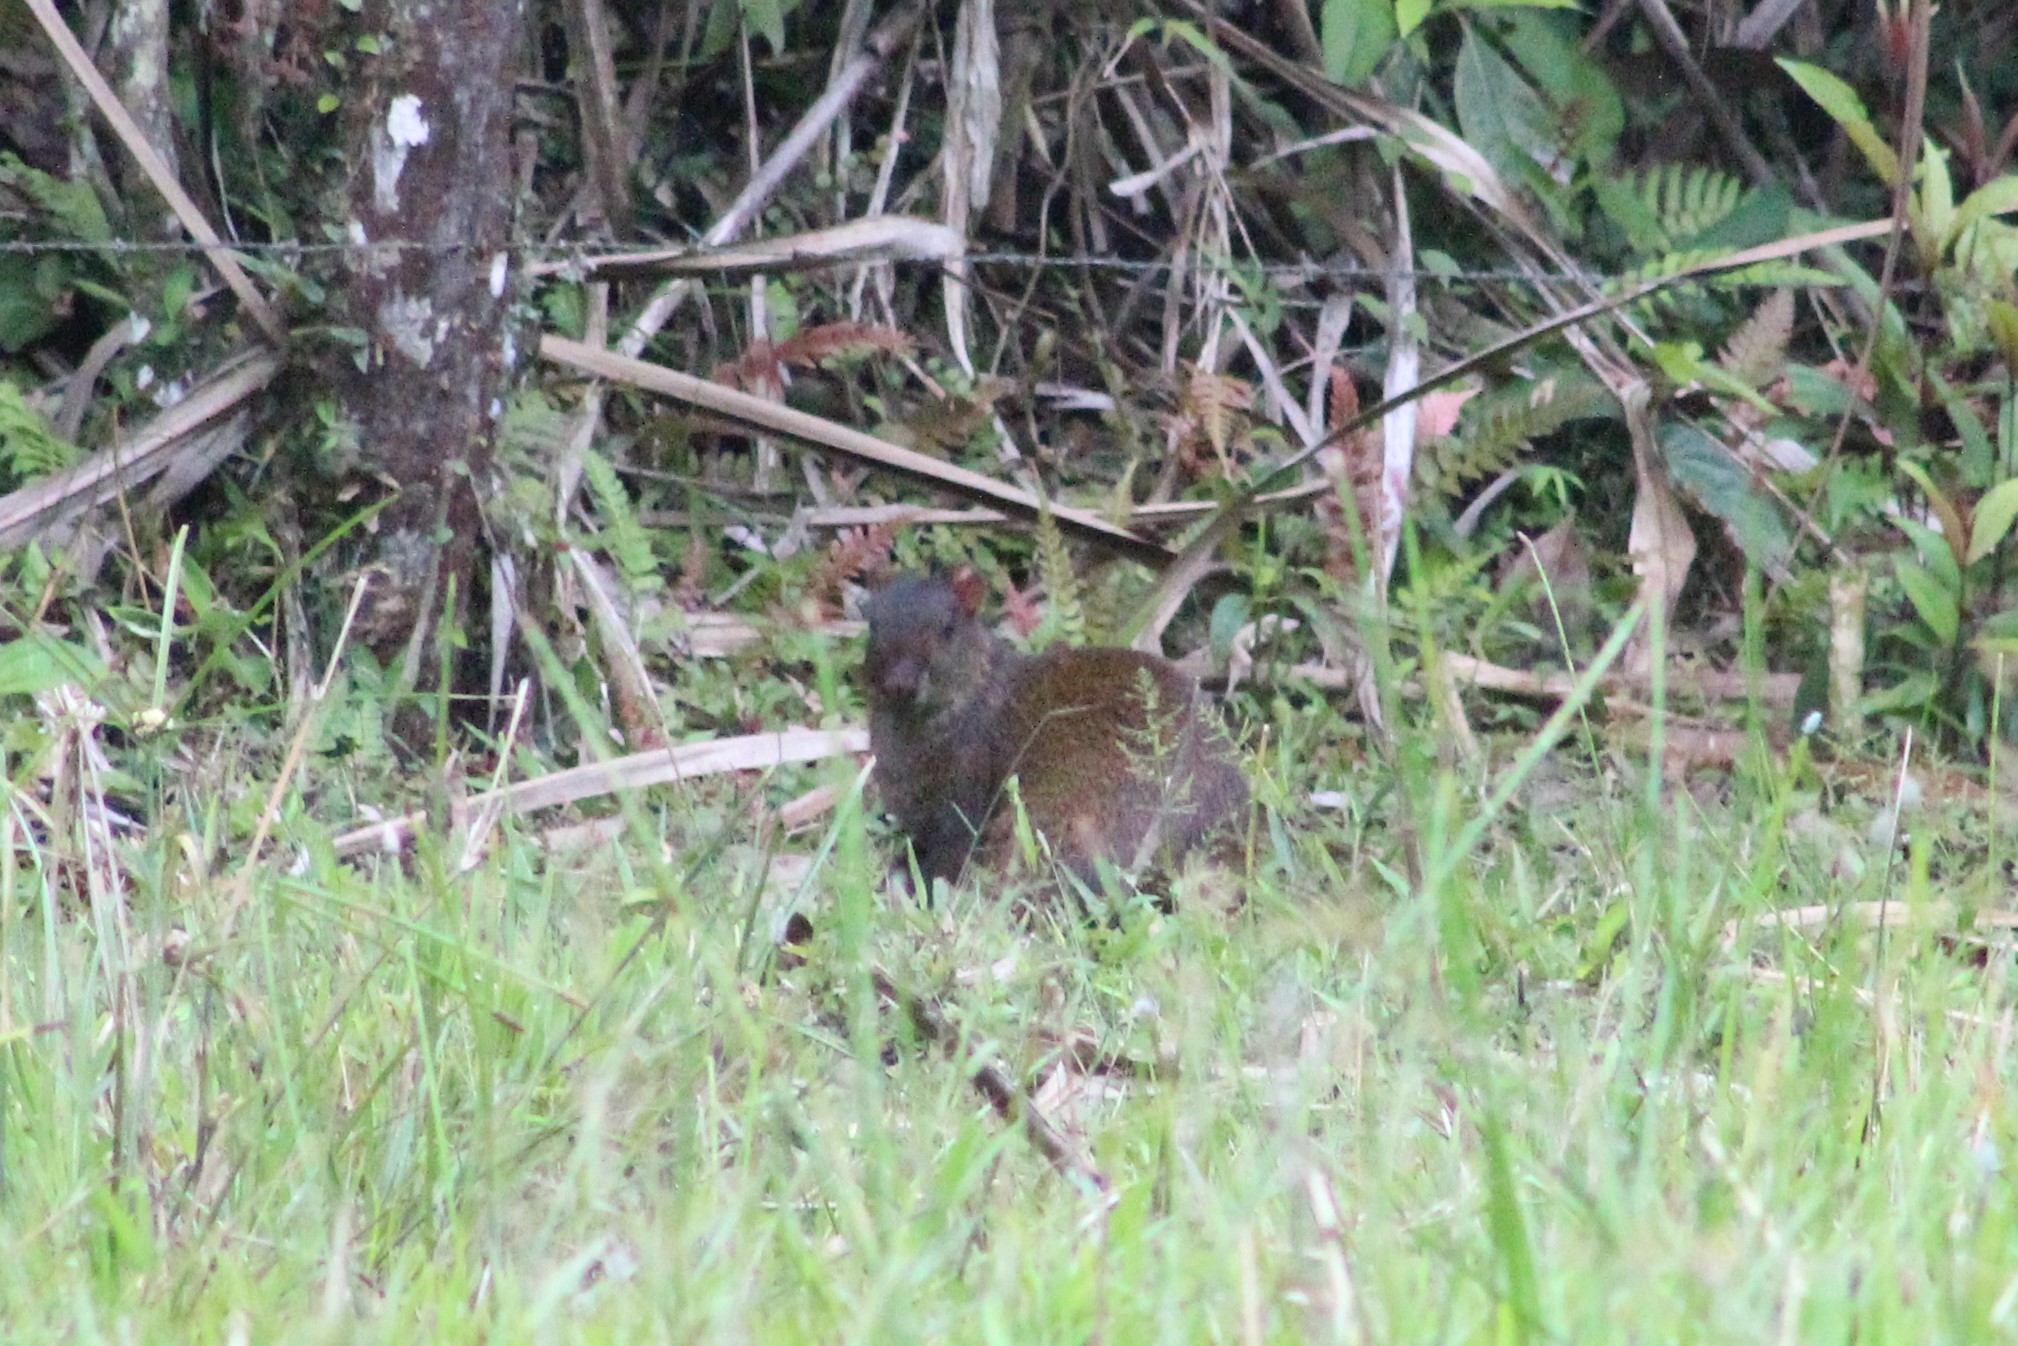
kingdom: Animalia
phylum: Chordata
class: Mammalia
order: Rodentia
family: Dasyproctidae
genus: Dasyprocta
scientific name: Dasyprocta punctata
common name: Central american agouti
